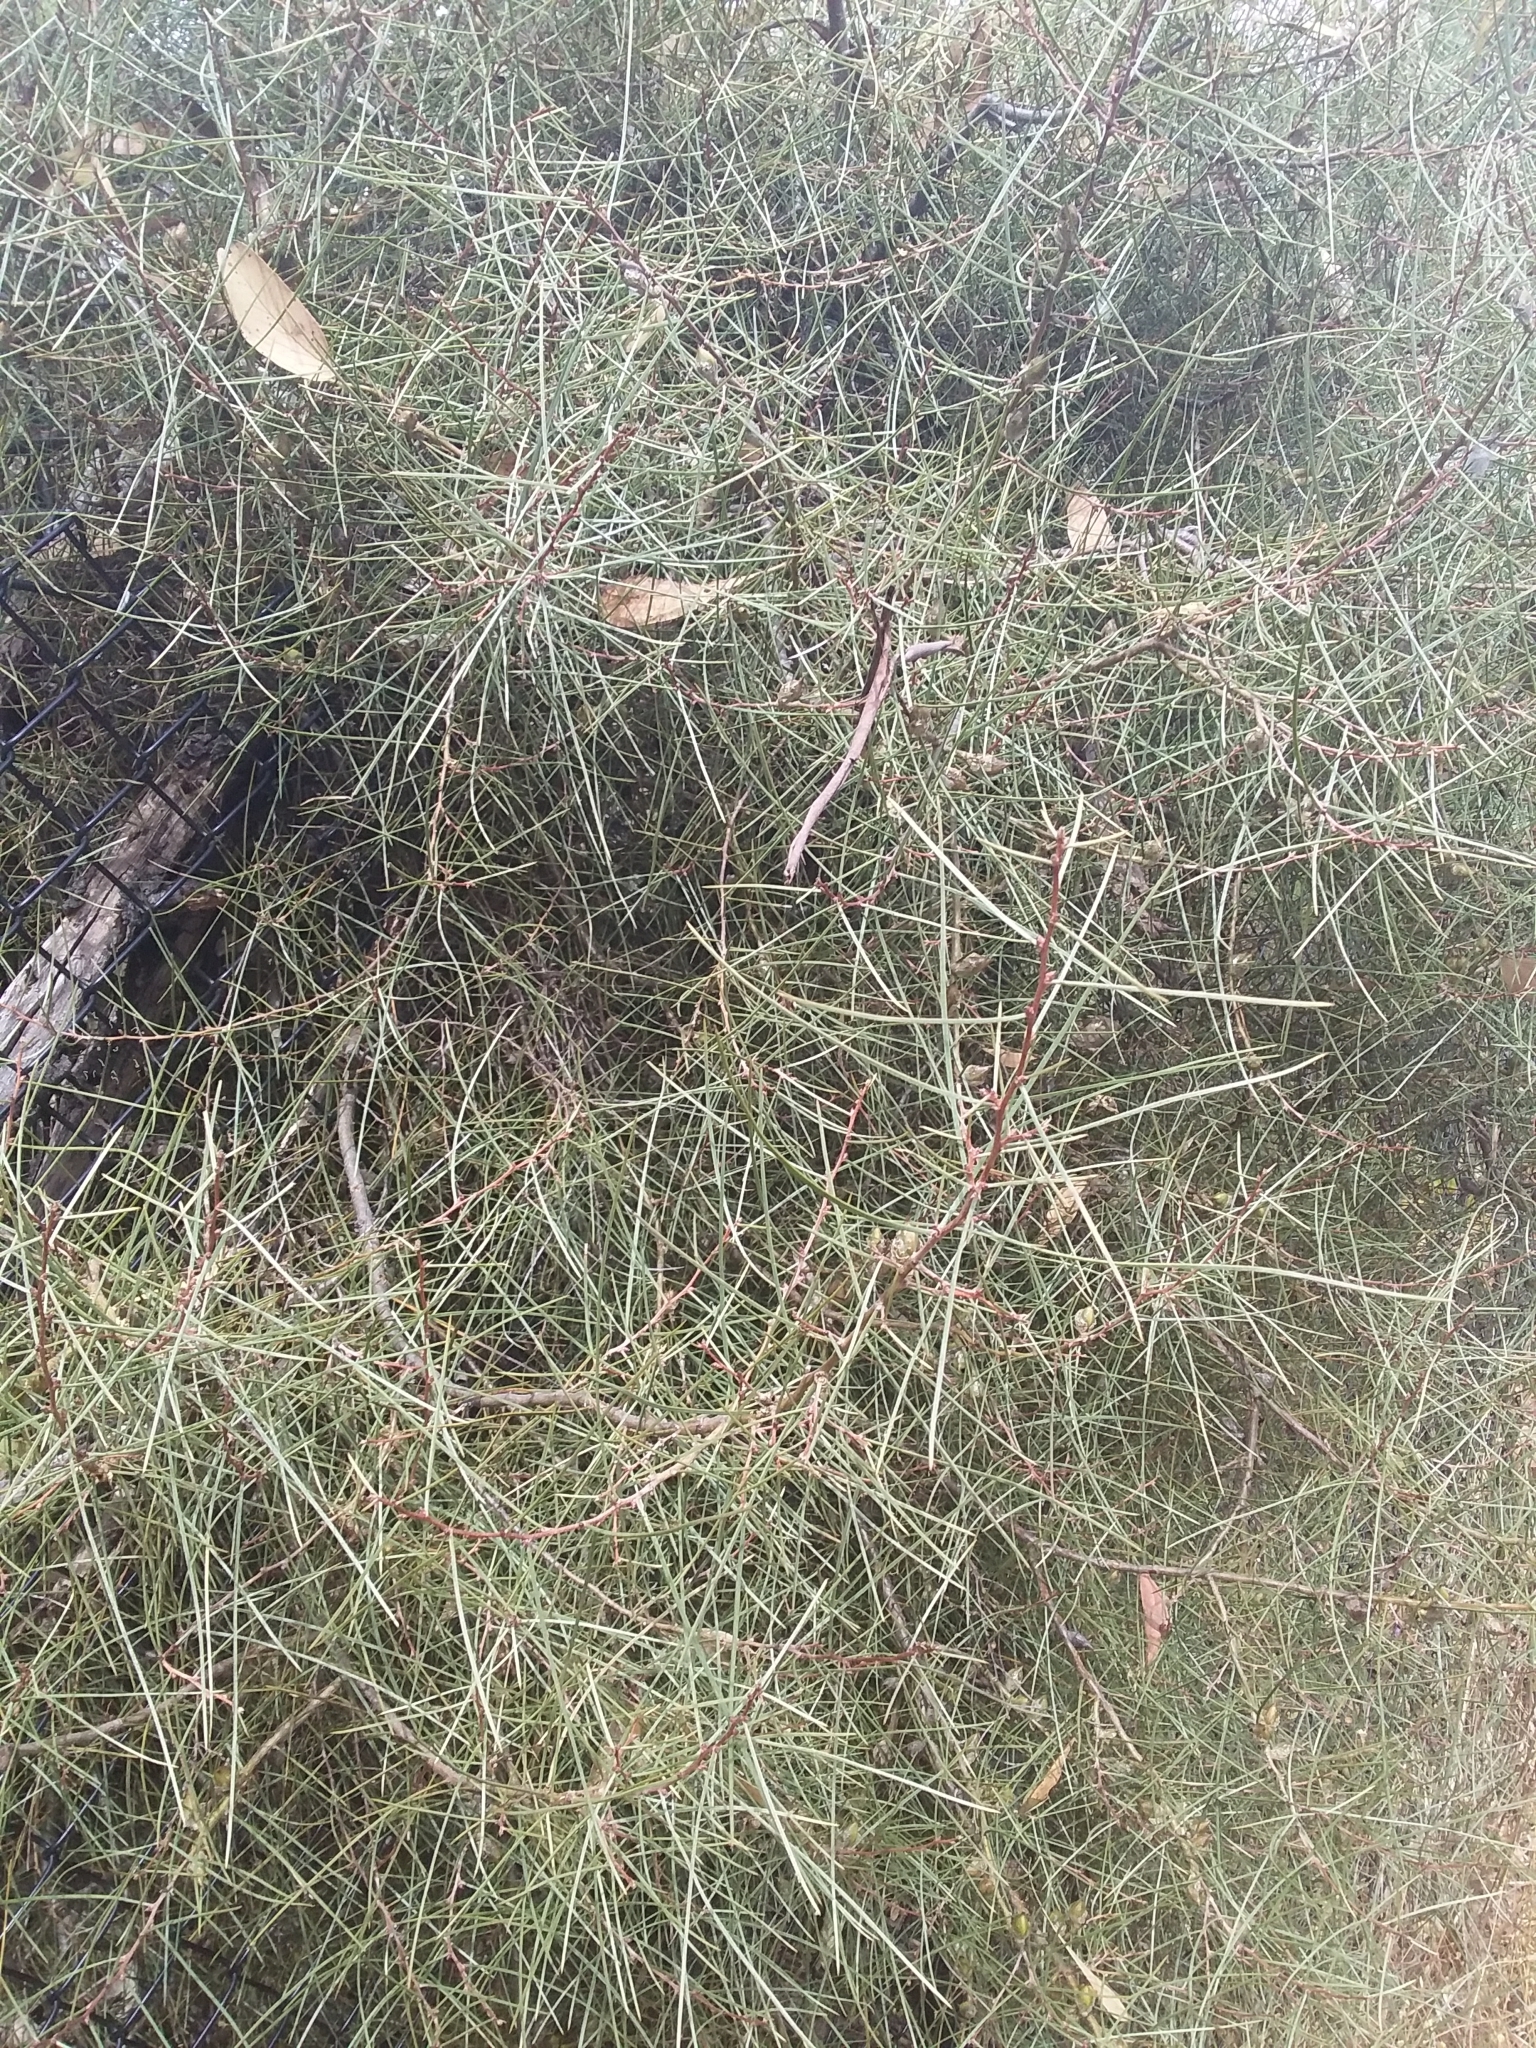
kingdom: Plantae
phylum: Tracheophyta
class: Magnoliopsida
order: Proteales
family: Proteaceae
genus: Hakea
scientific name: Hakea carinata
